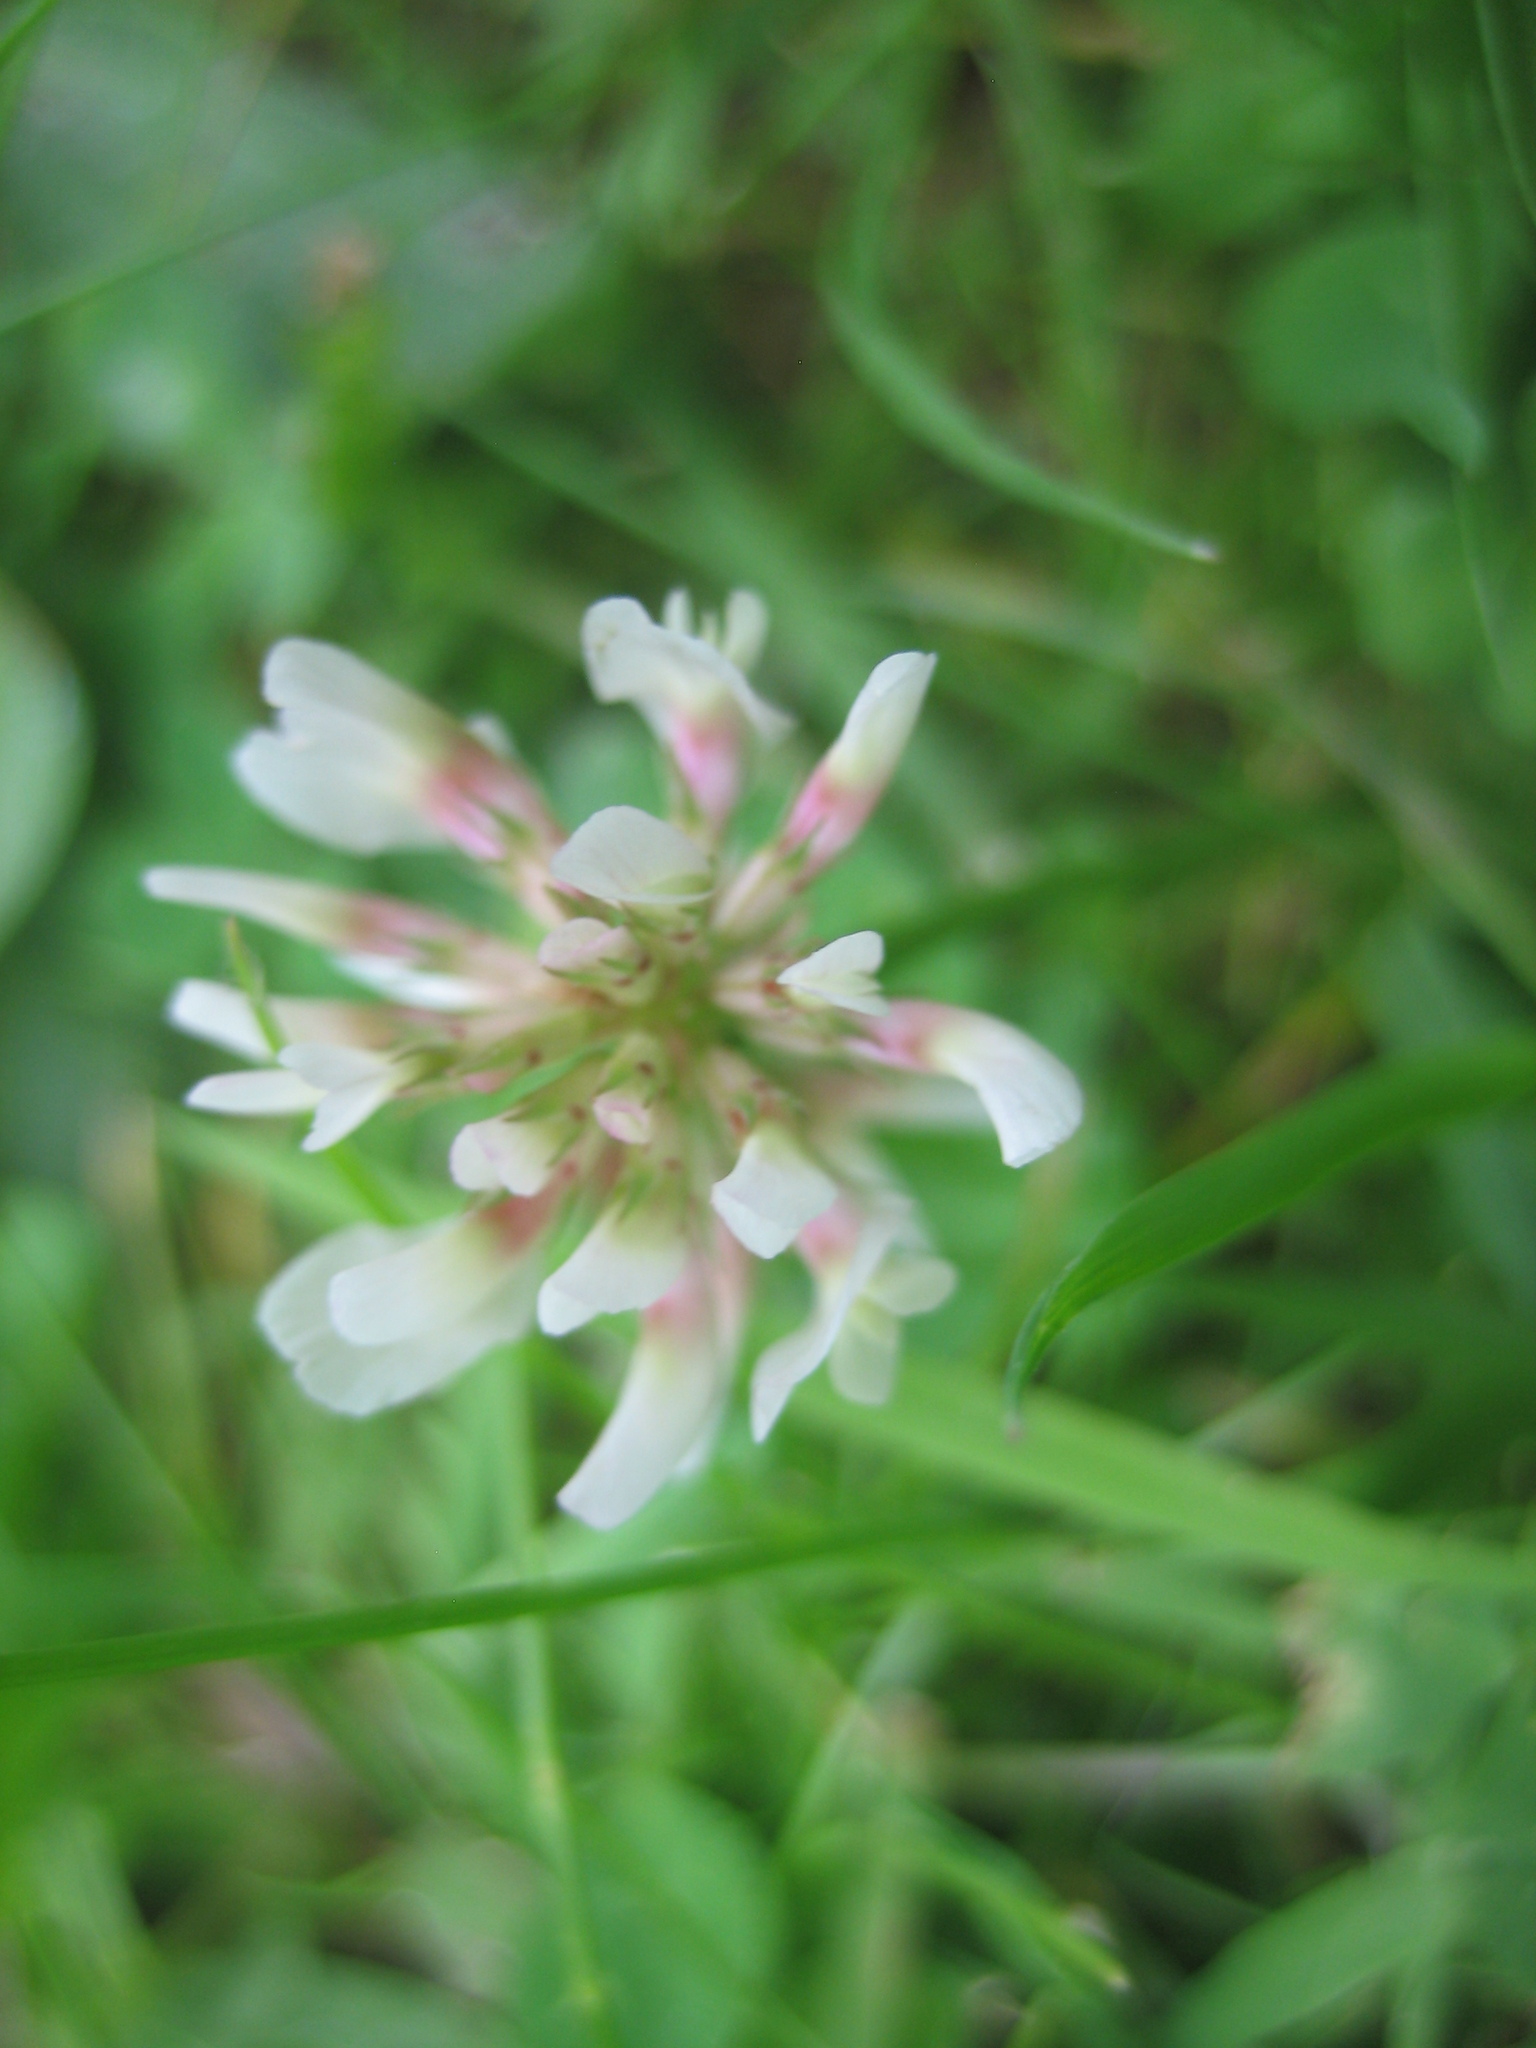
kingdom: Plantae
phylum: Tracheophyta
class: Magnoliopsida
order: Fabales
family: Fabaceae
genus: Trifolium
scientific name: Trifolium repens
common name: White clover
